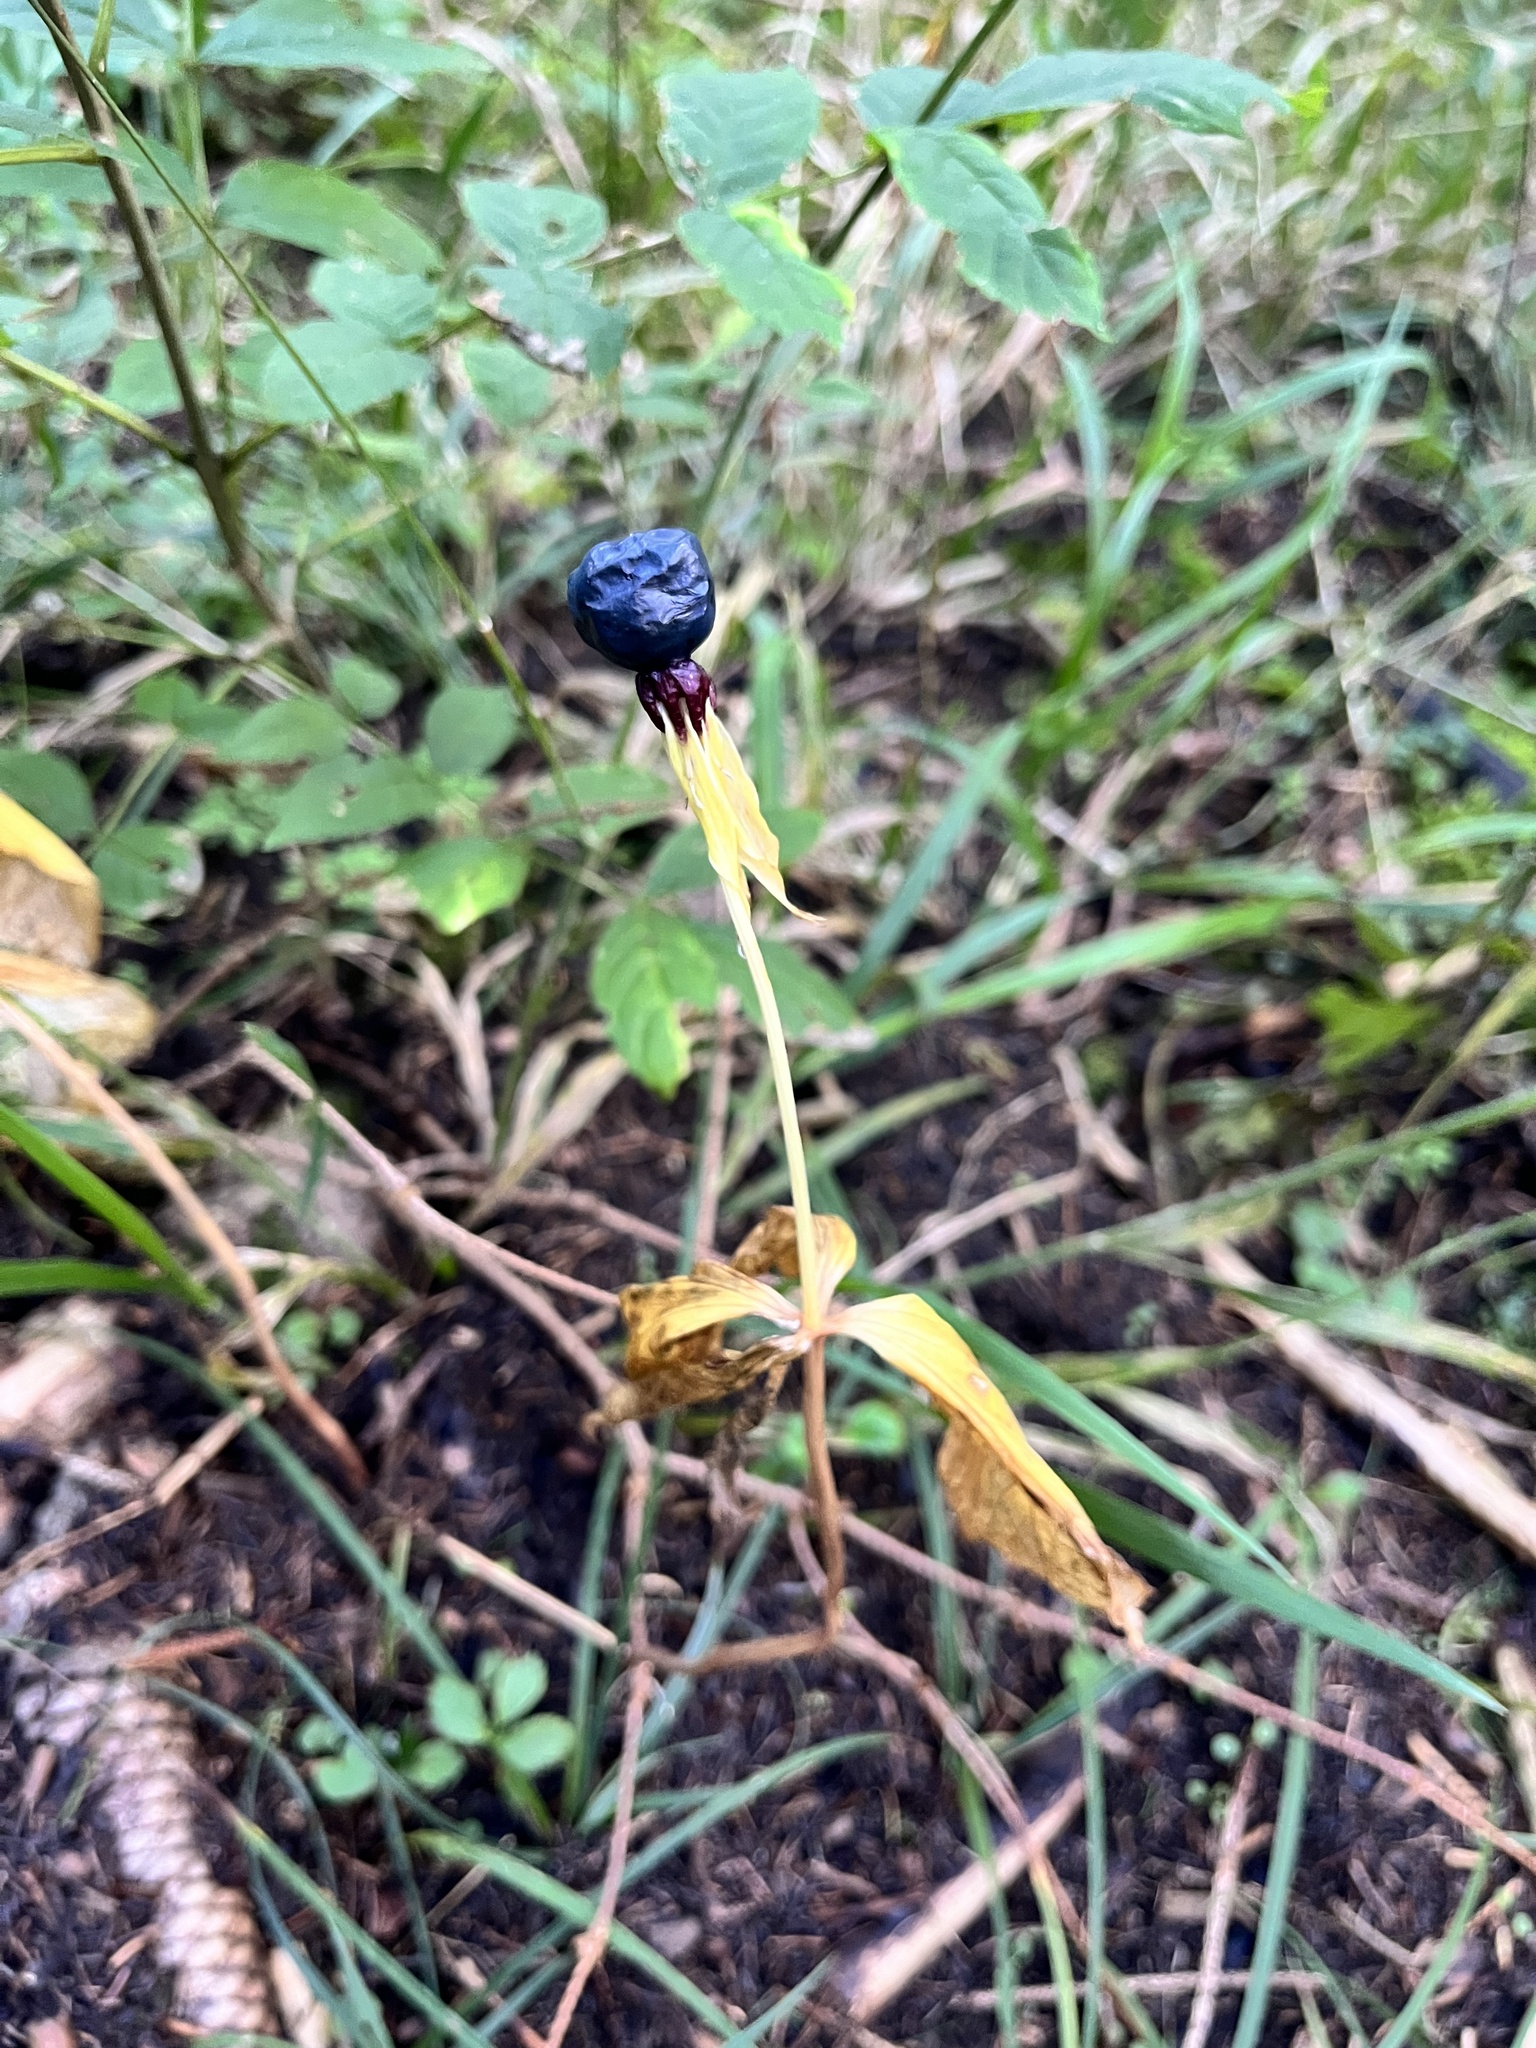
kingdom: Plantae
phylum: Tracheophyta
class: Liliopsida
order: Liliales
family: Melanthiaceae
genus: Paris
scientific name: Paris quadrifolia
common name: Herb-paris
